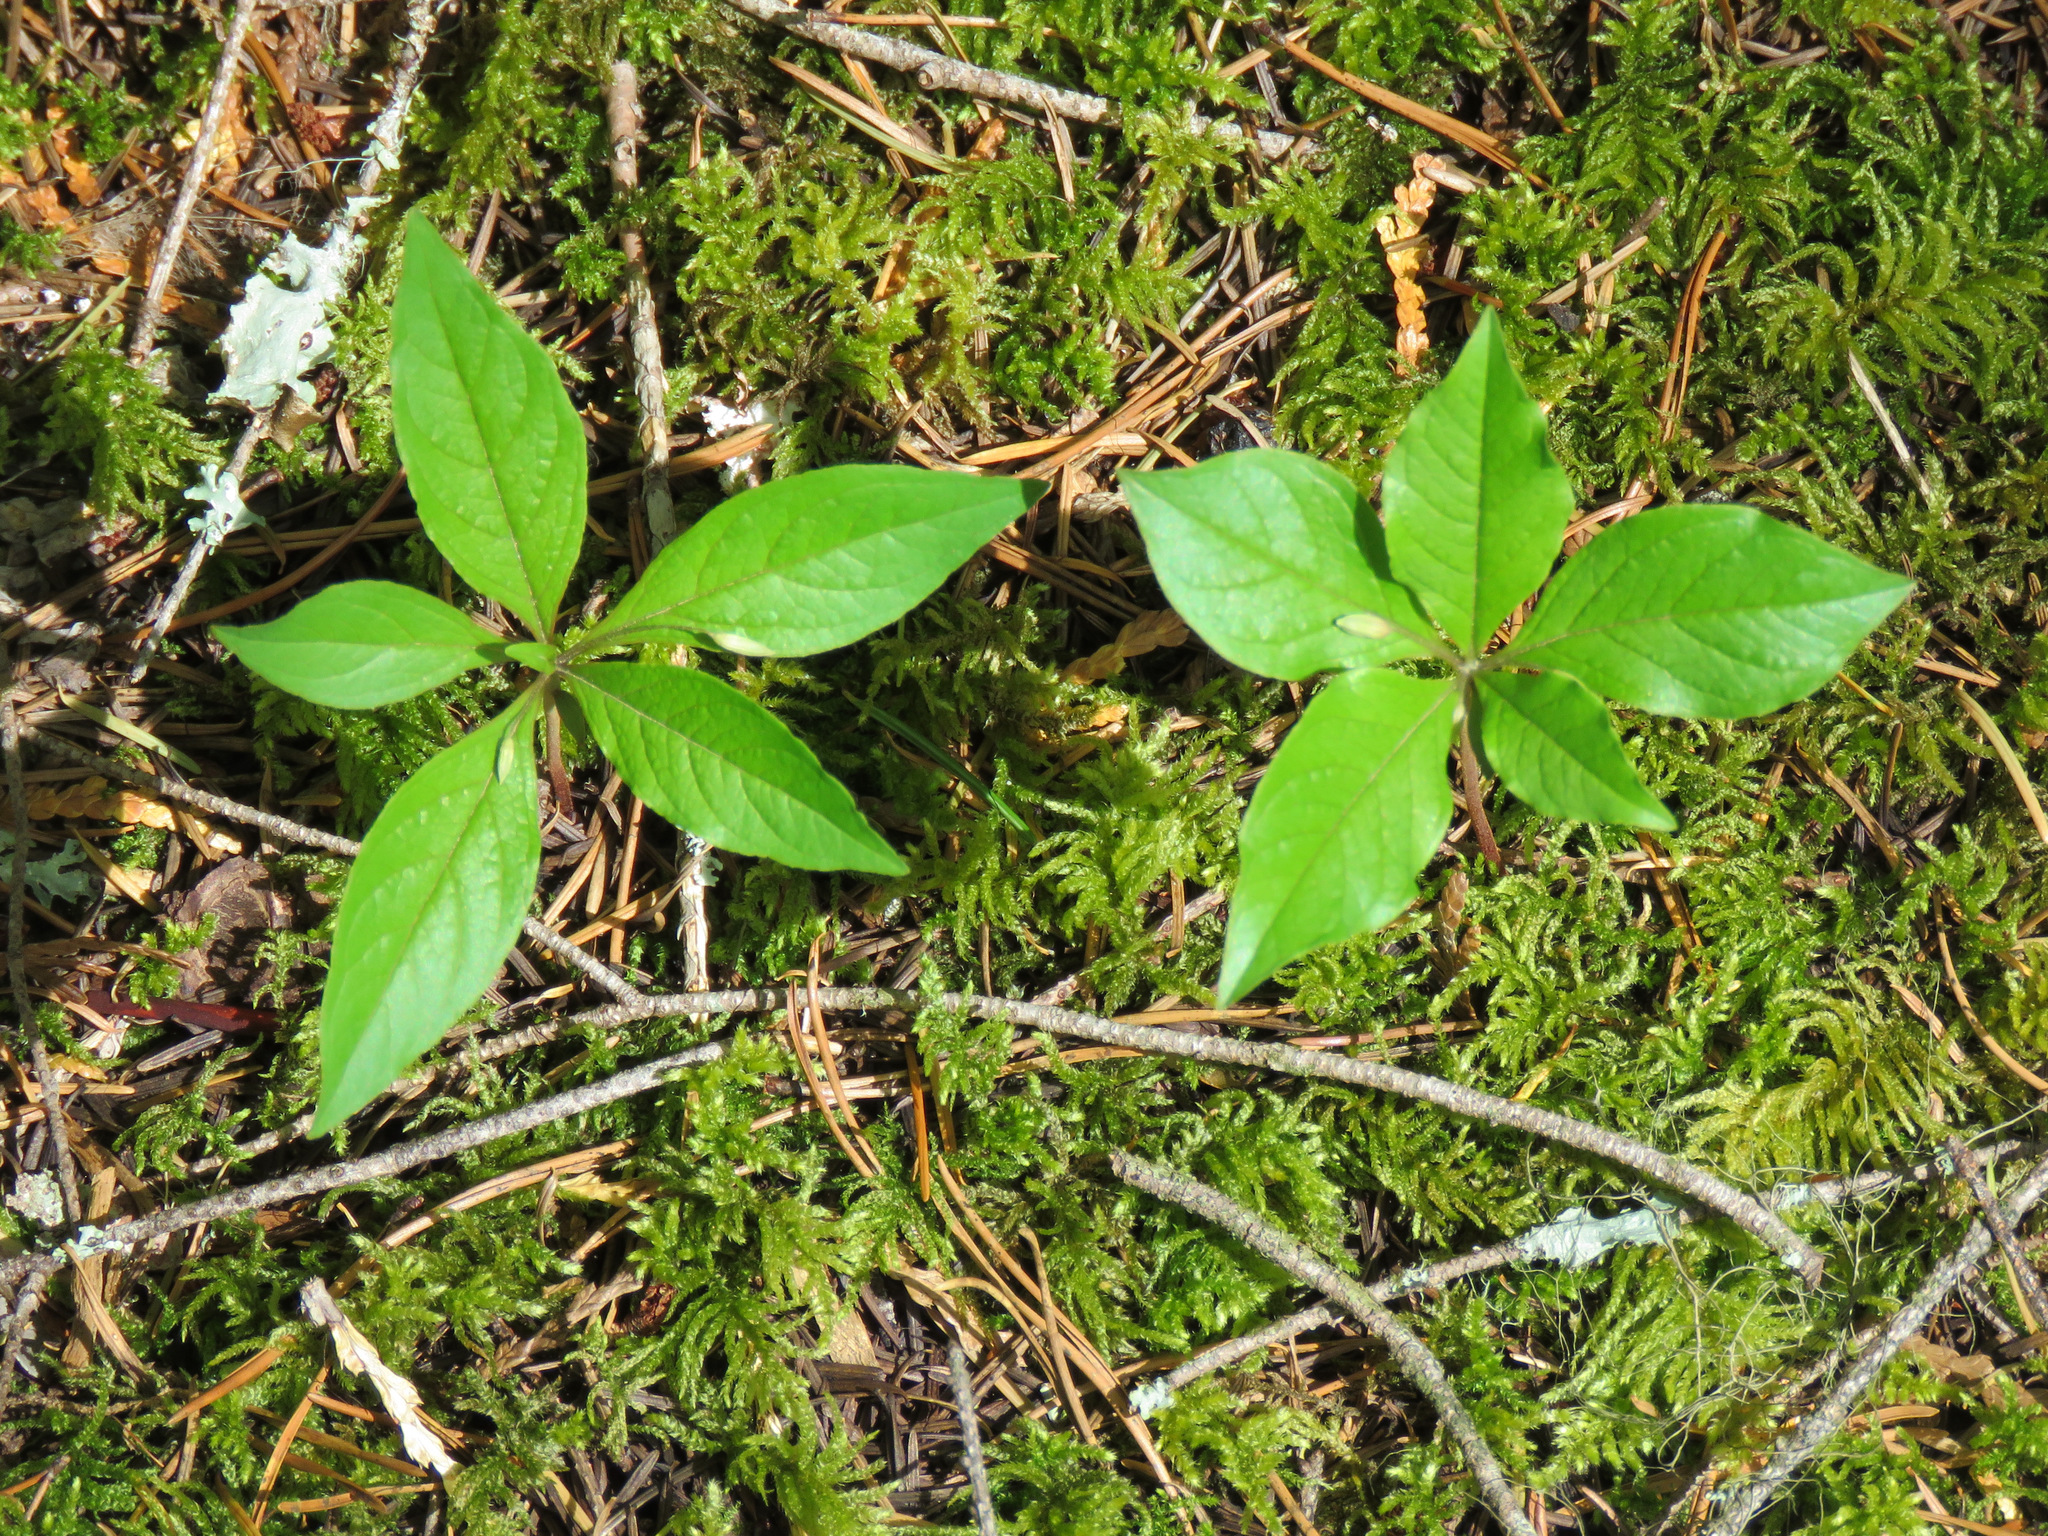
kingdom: Plantae
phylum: Tracheophyta
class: Magnoliopsida
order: Ericales
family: Primulaceae
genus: Lysimachia
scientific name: Lysimachia latifolia
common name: Pacific starflower
